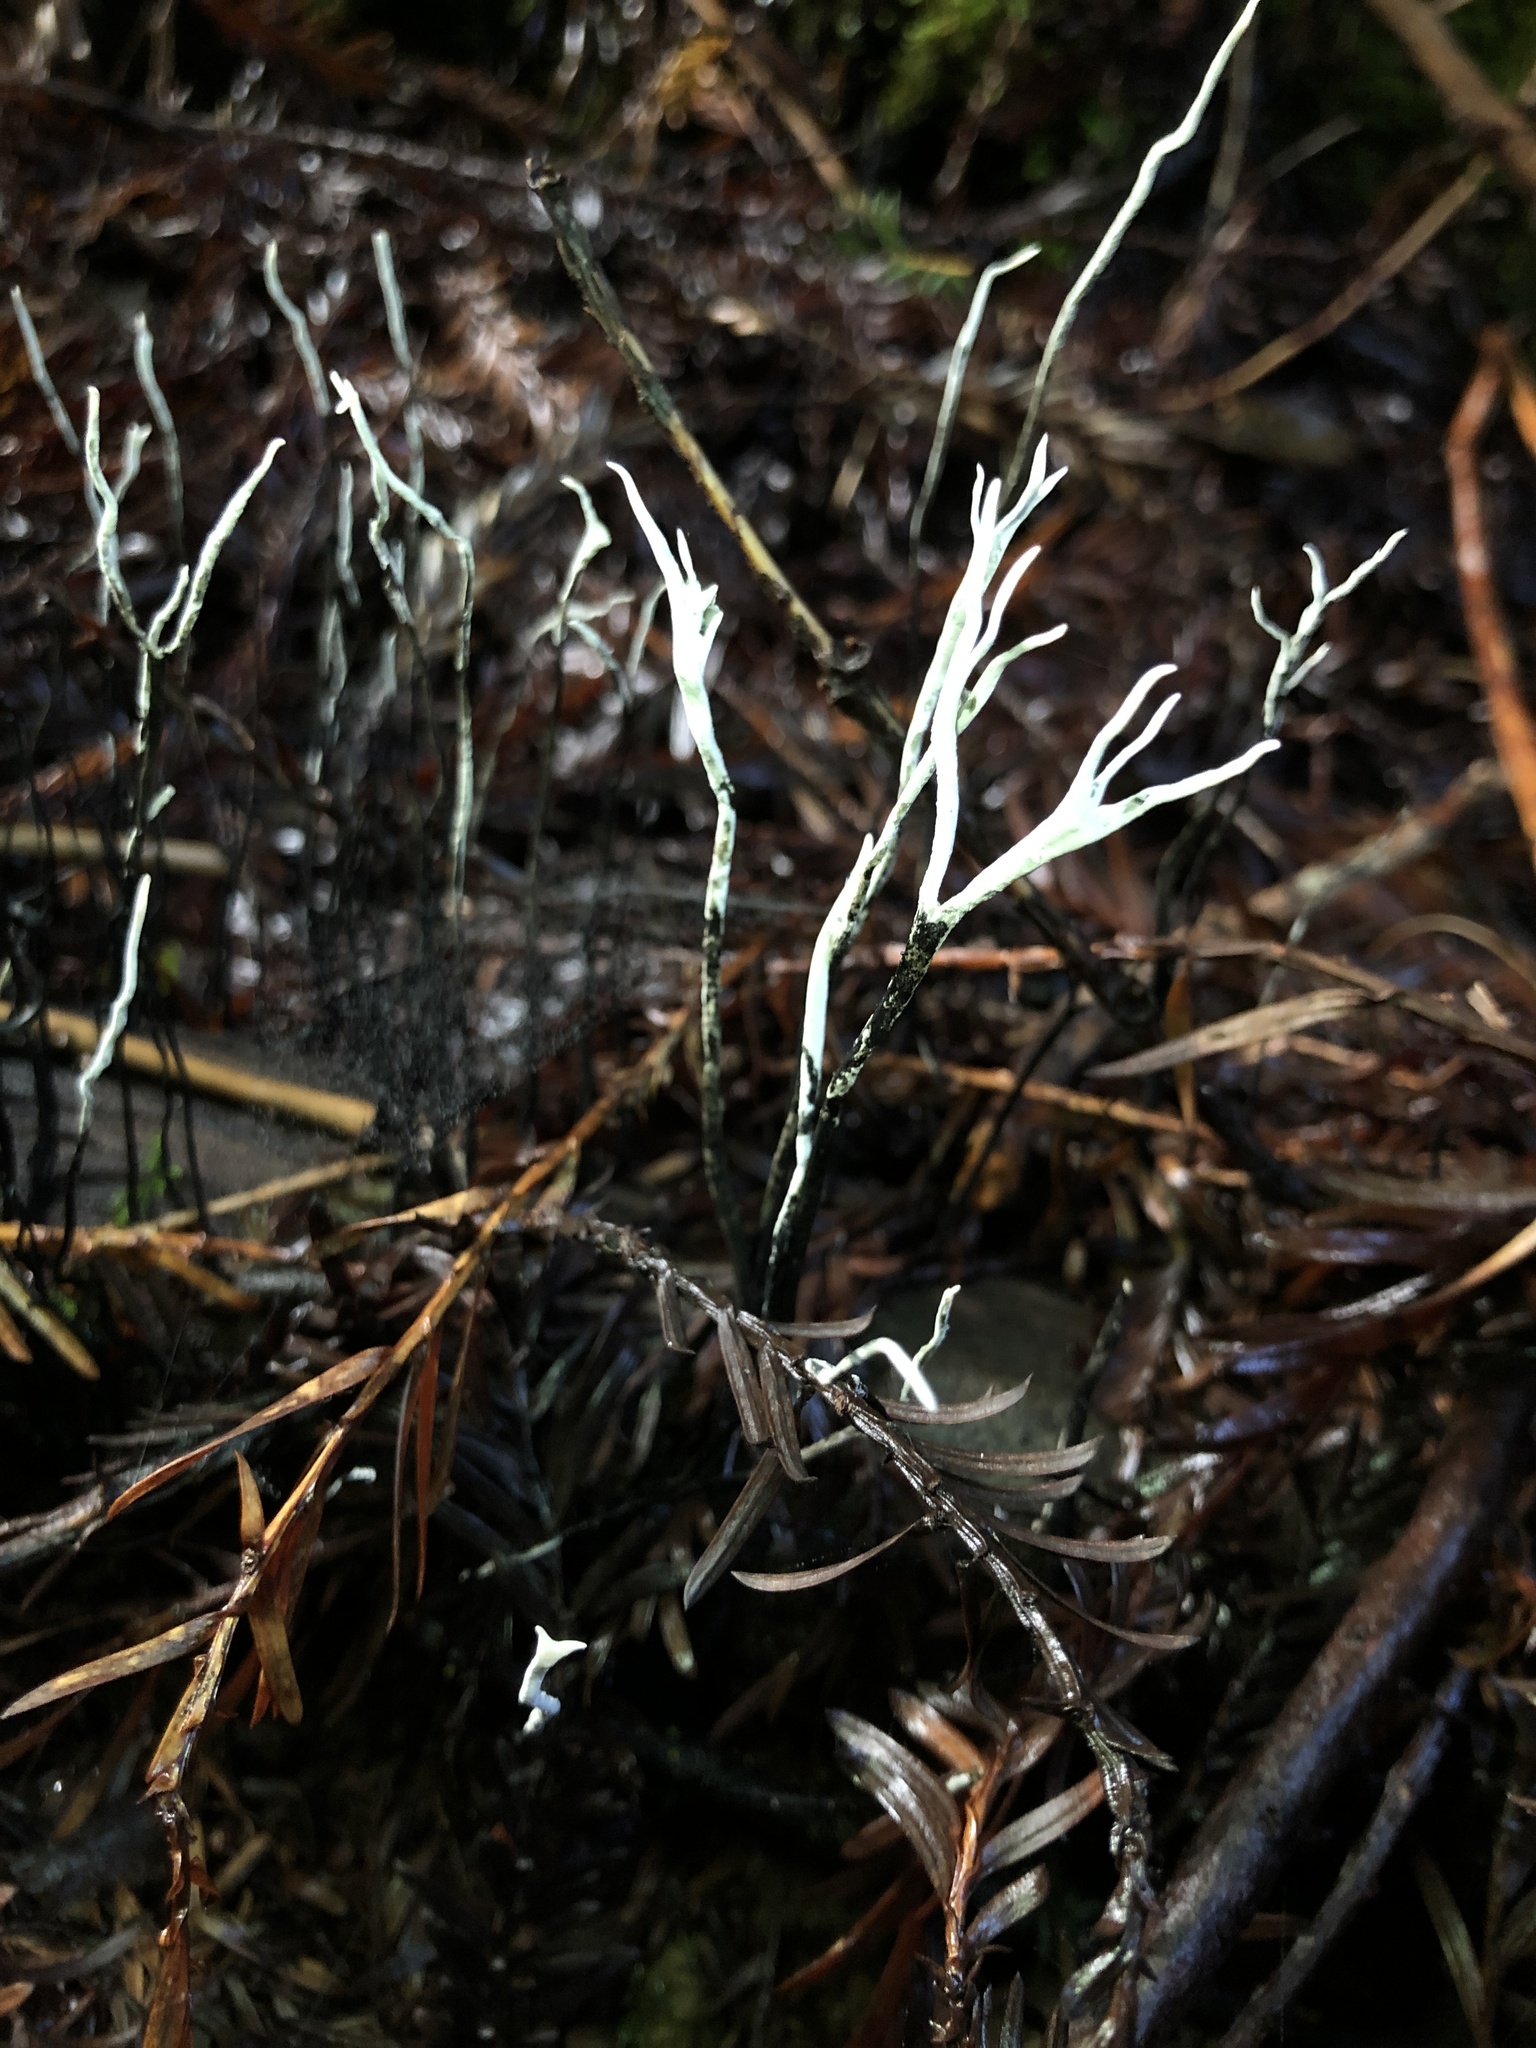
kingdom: Fungi
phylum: Ascomycota
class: Sordariomycetes
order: Xylariales
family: Xylariaceae
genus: Xylaria
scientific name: Xylaria hypoxylon
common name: Candle-snuff fungus
